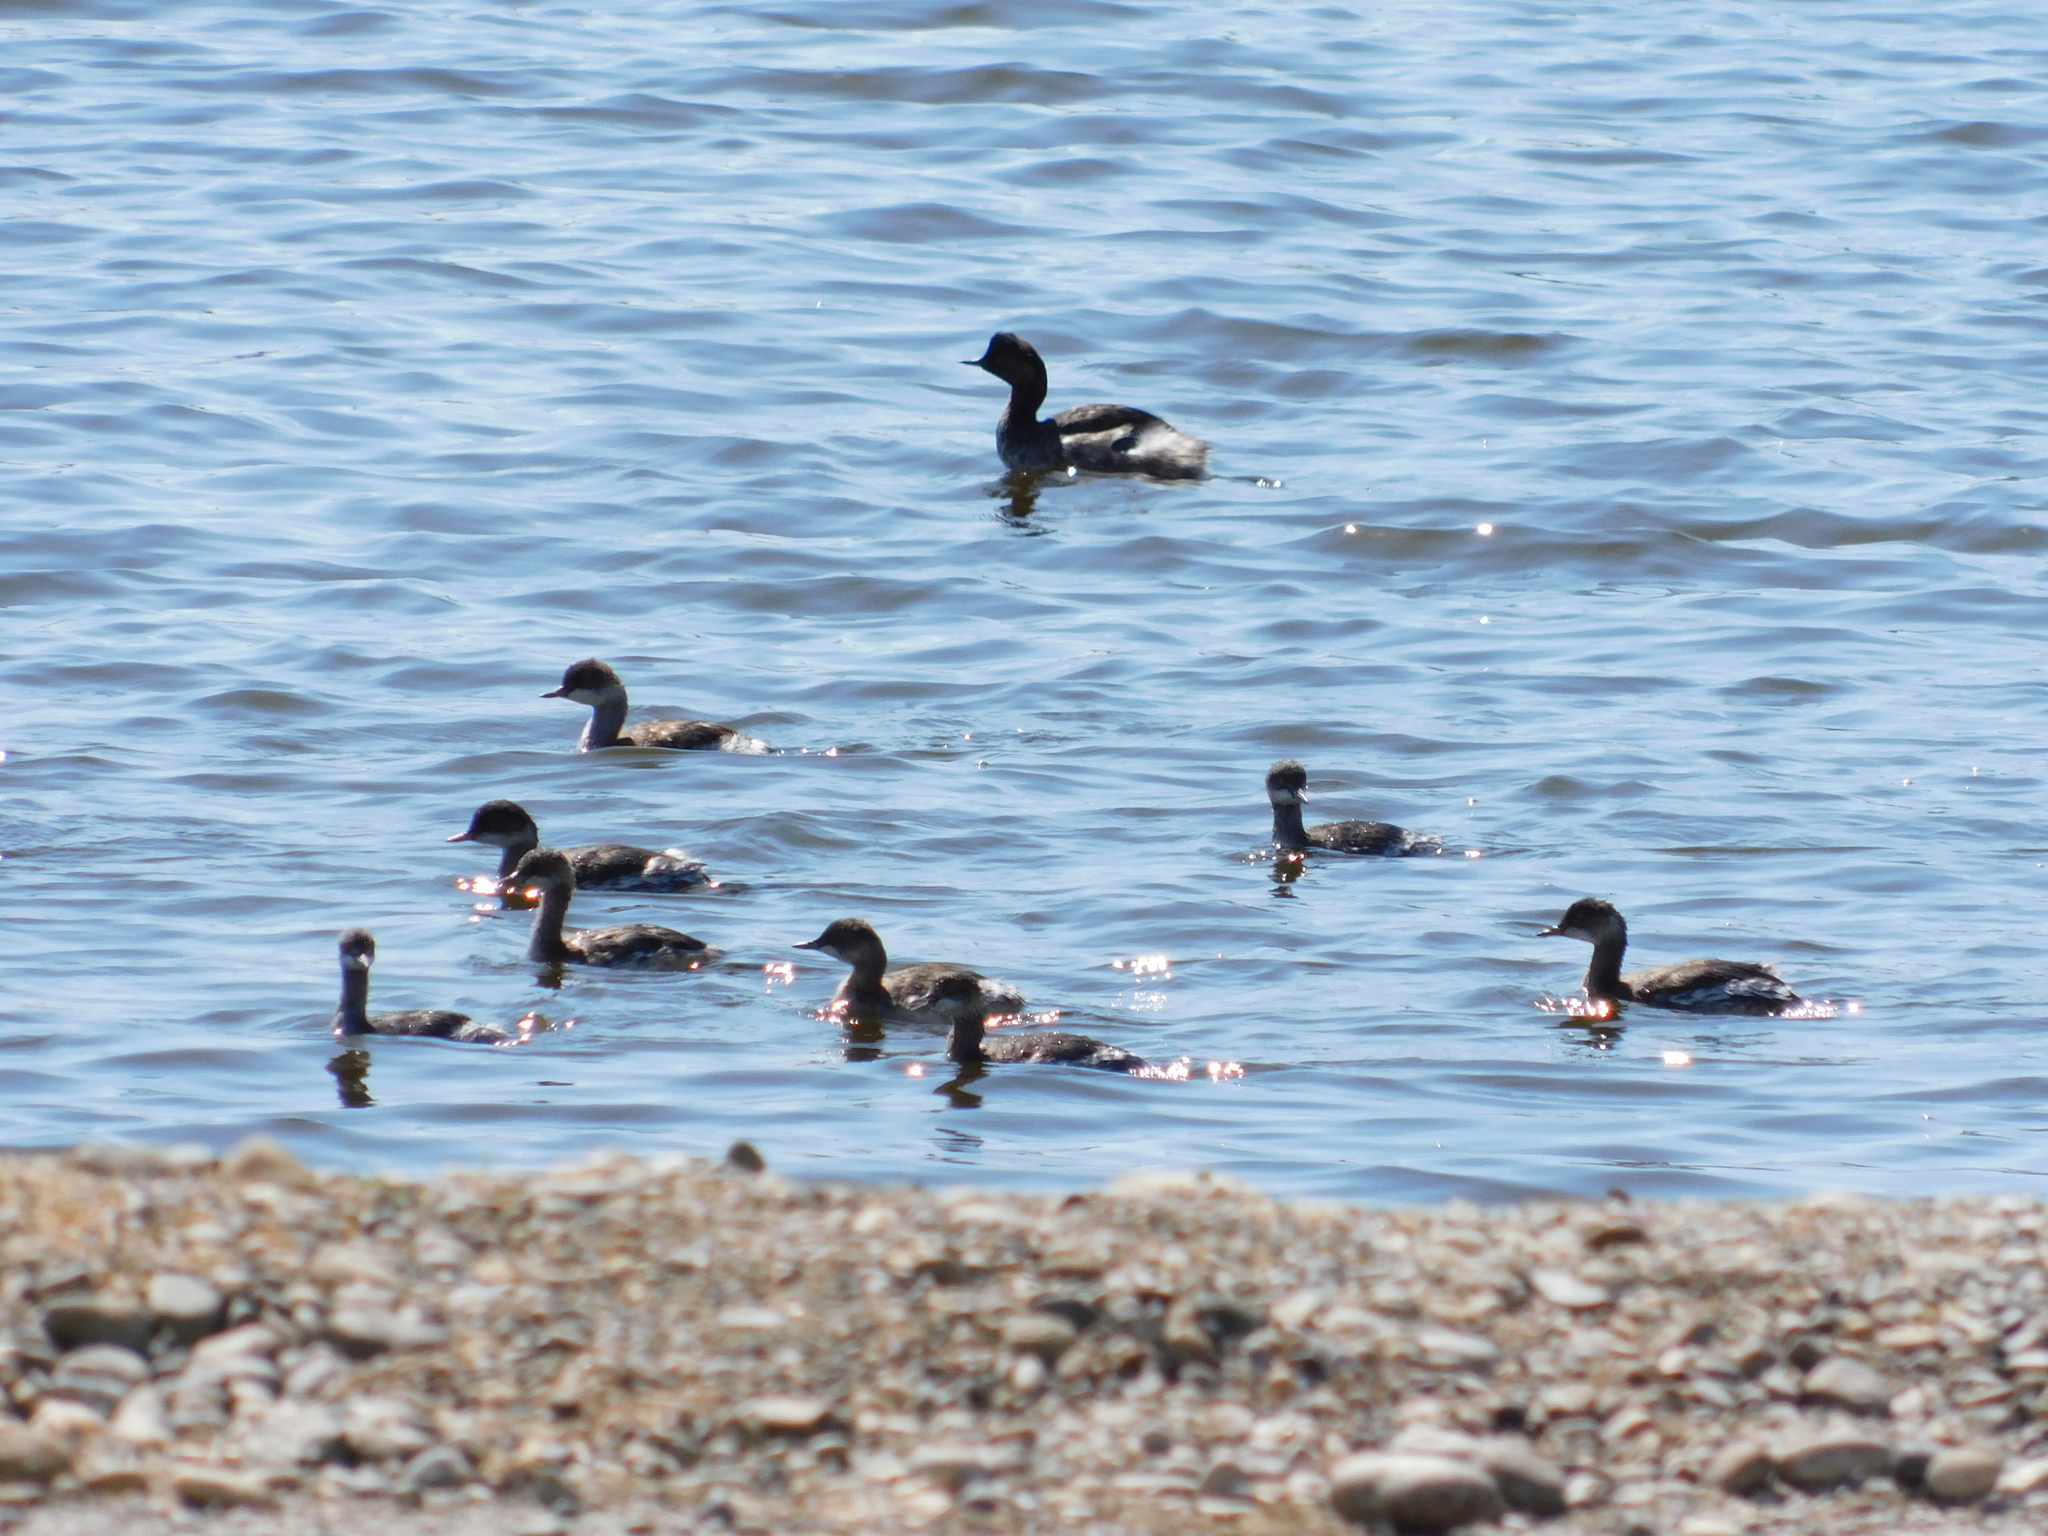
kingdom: Animalia
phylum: Chordata
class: Aves
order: Podicipediformes
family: Podicipedidae
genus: Podiceps
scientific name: Podiceps nigricollis
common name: Black-necked grebe
